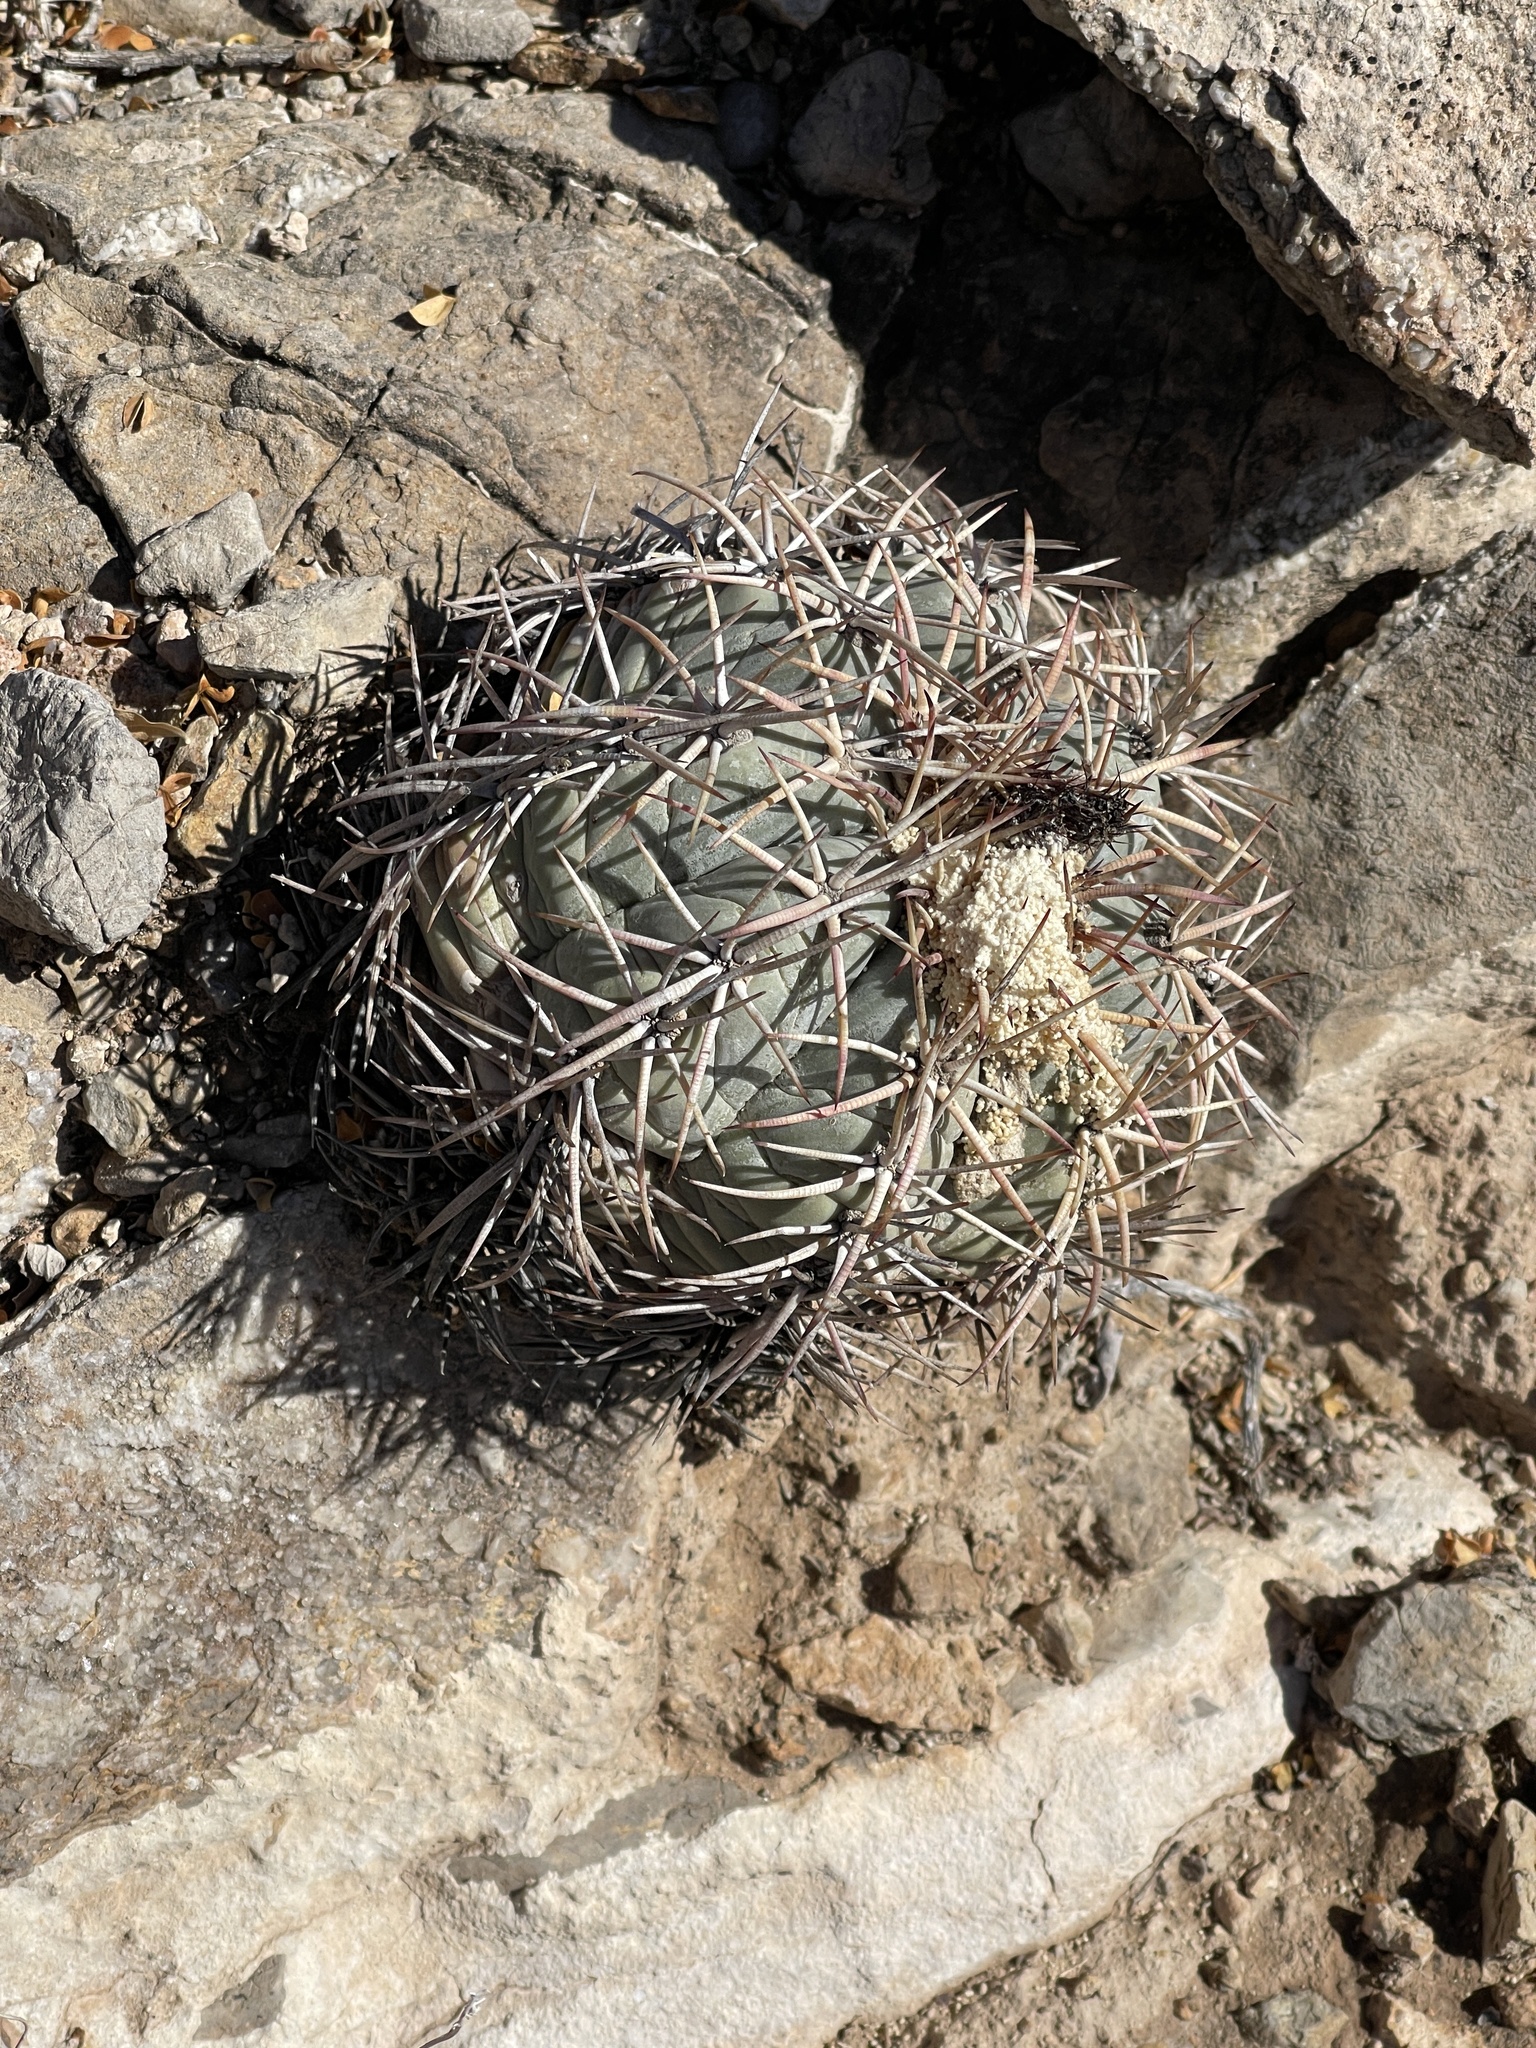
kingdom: Plantae
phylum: Tracheophyta
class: Magnoliopsida
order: Caryophyllales
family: Cactaceae
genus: Echinocactus
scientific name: Echinocactus horizonthalonius
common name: Devilshead
